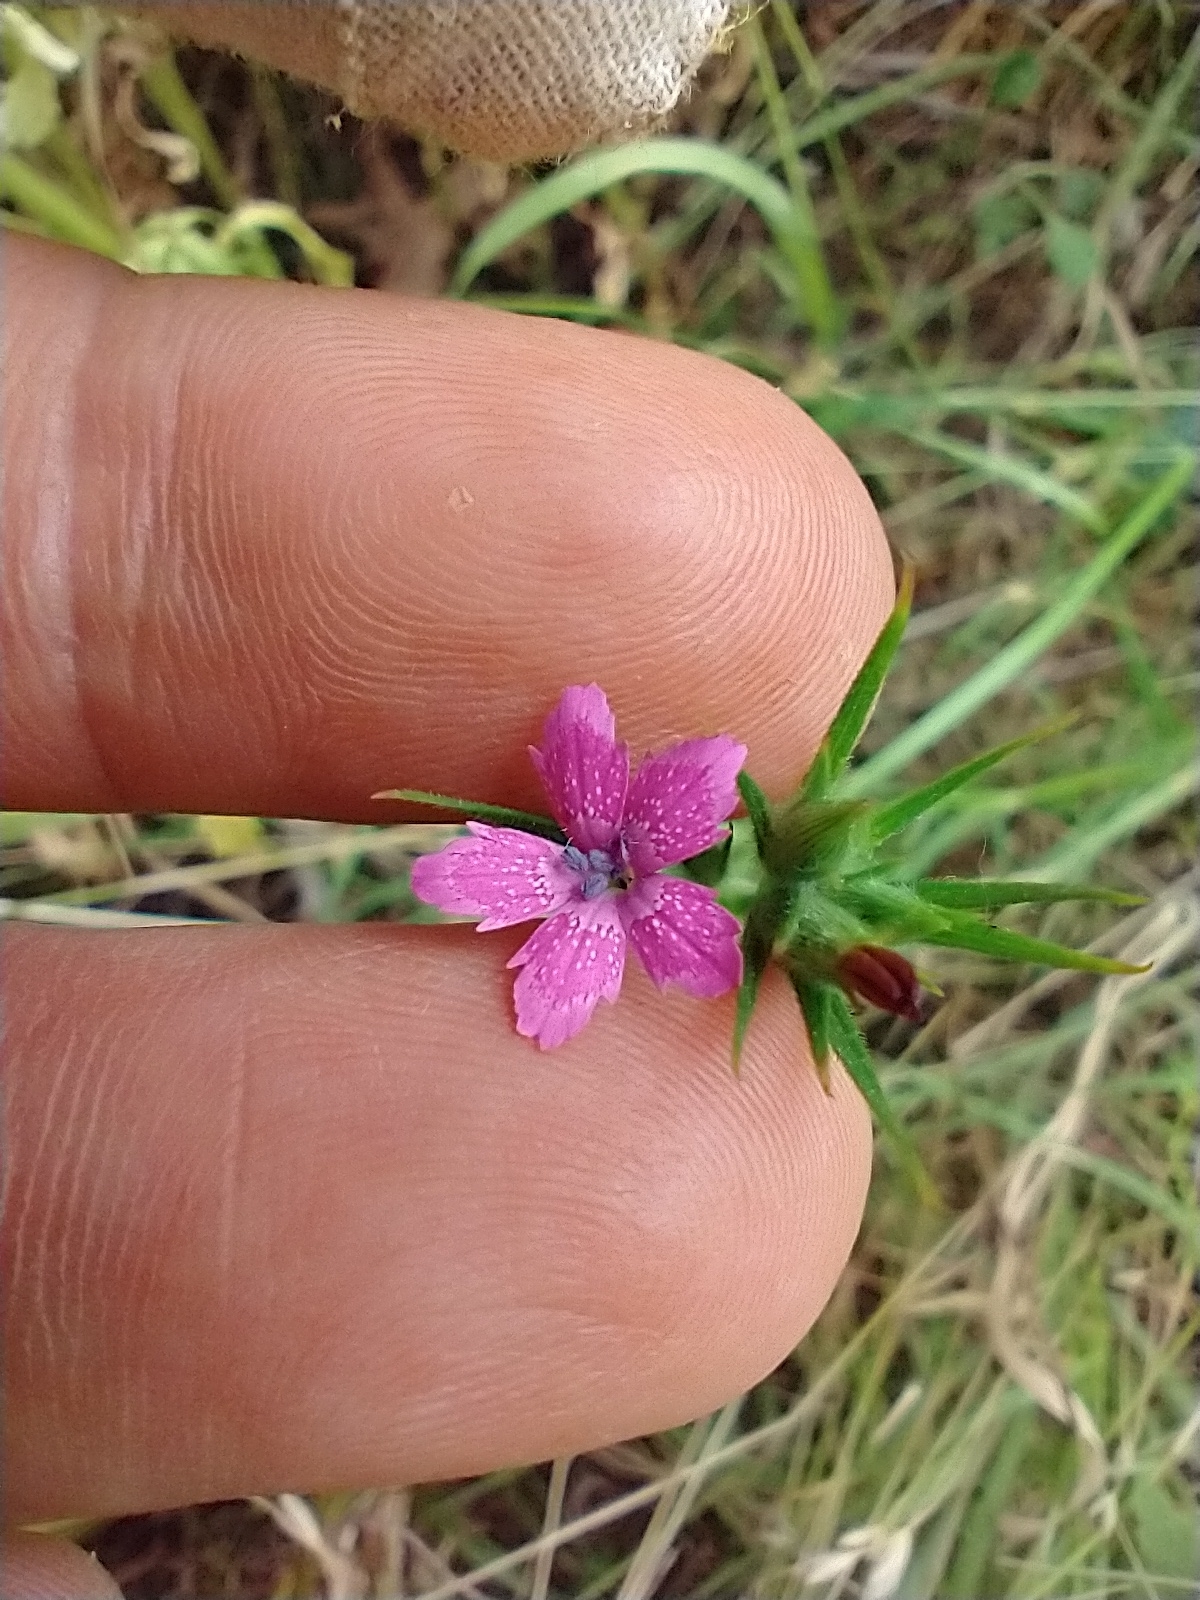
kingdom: Plantae
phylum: Tracheophyta
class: Magnoliopsida
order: Caryophyllales
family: Caryophyllaceae
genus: Dianthus
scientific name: Dianthus armeria
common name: Deptford pink
